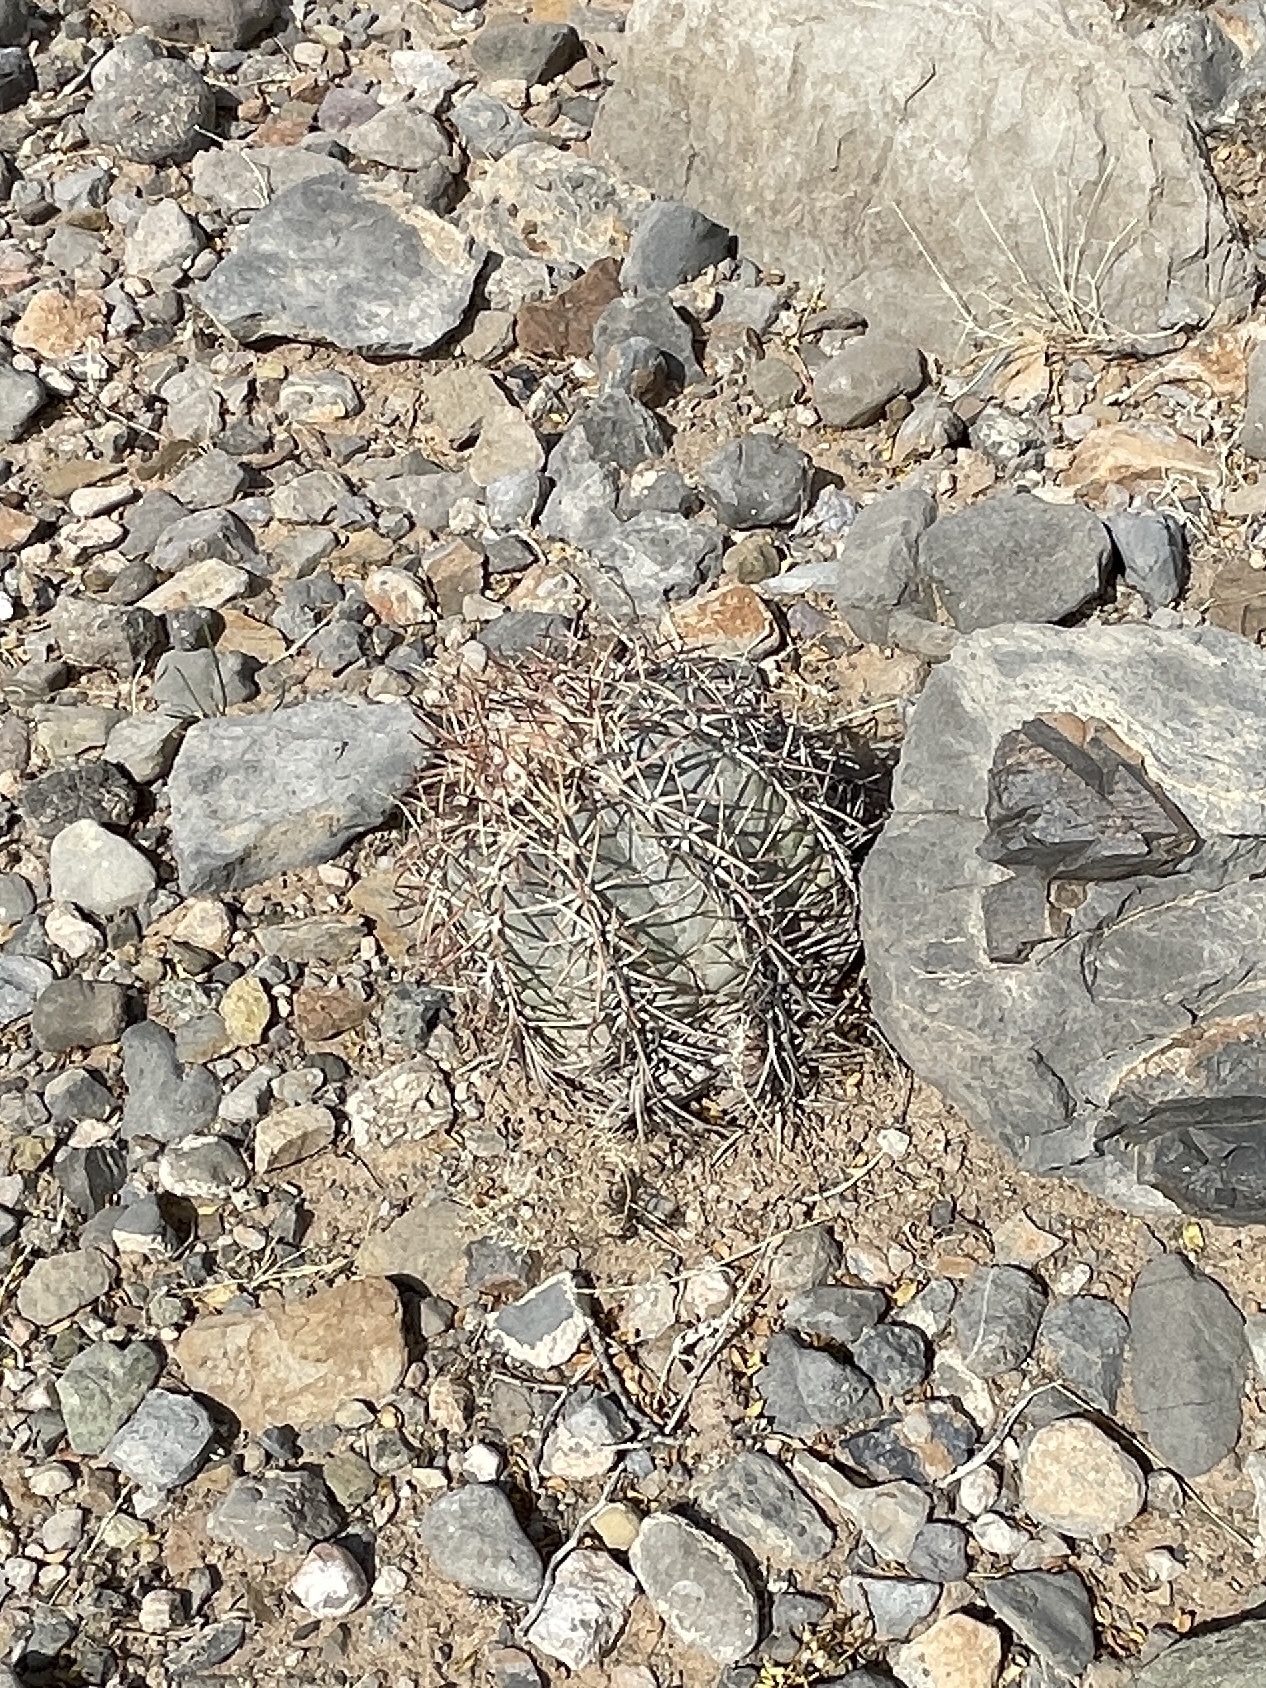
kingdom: Plantae
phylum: Tracheophyta
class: Magnoliopsida
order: Caryophyllales
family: Cactaceae
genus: Echinocactus
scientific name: Echinocactus horizonthalonius
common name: Devilshead
